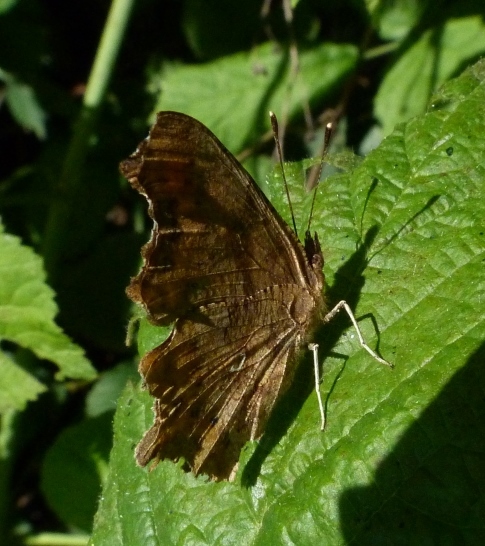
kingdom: Animalia
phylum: Arthropoda
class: Insecta
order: Lepidoptera
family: Nymphalidae
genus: Polygonia
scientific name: Polygonia c-album
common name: Comma
